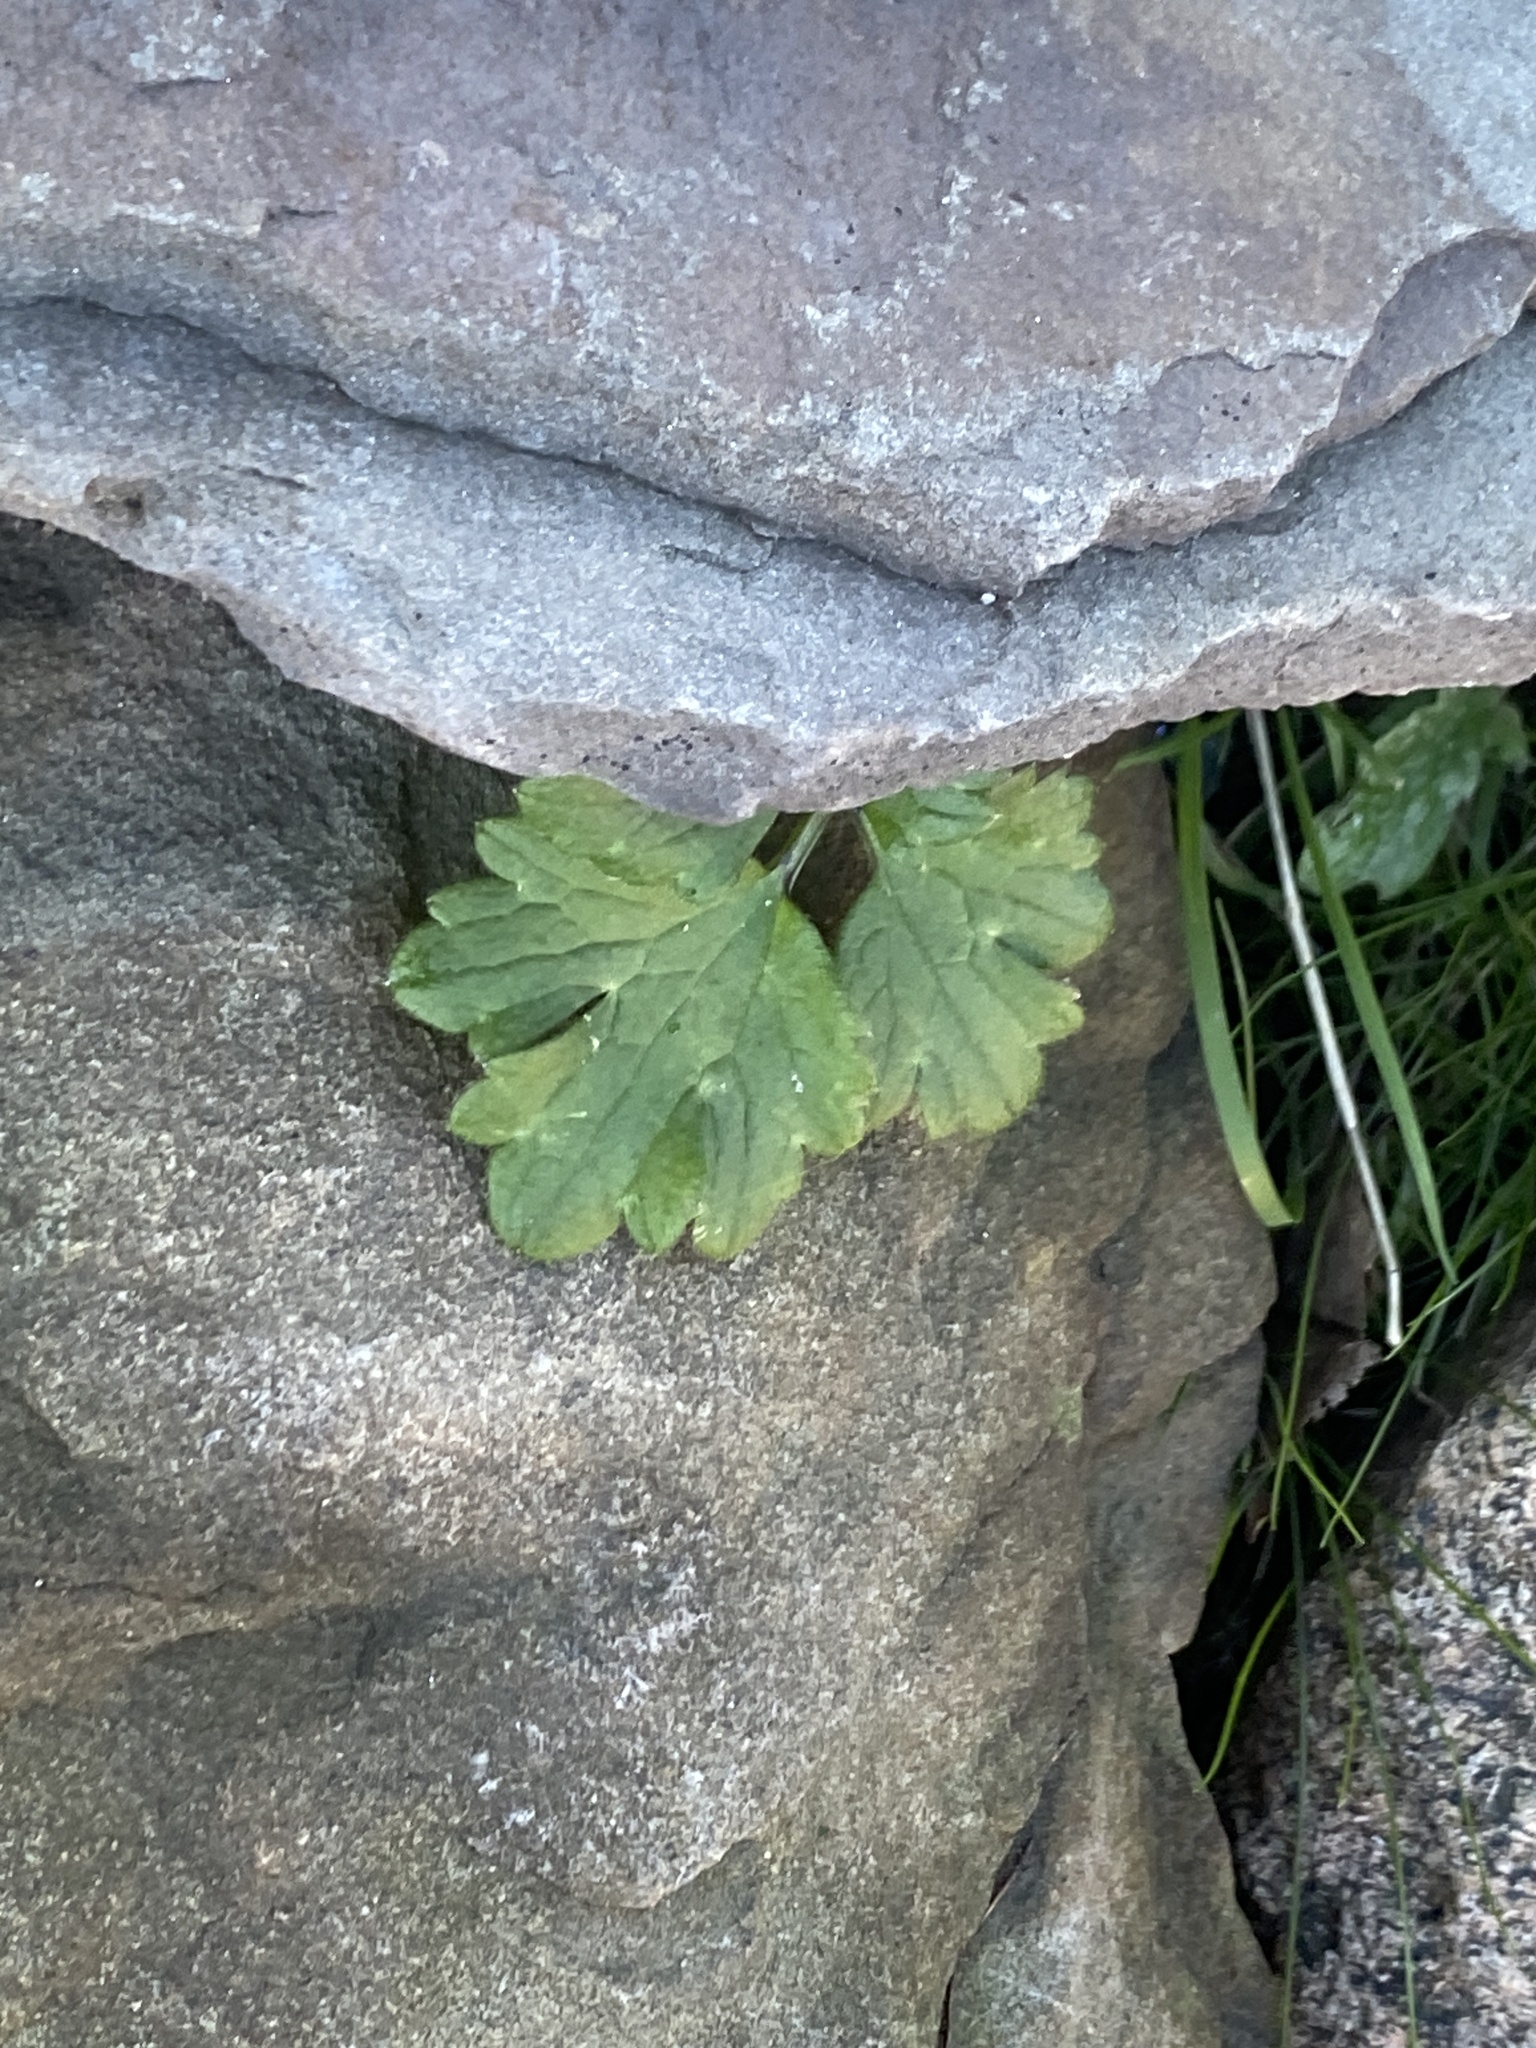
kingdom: Plantae
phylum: Tracheophyta
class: Magnoliopsida
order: Ranunculales
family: Ranunculaceae
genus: Ranunculus
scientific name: Ranunculus repens
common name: Creeping buttercup
